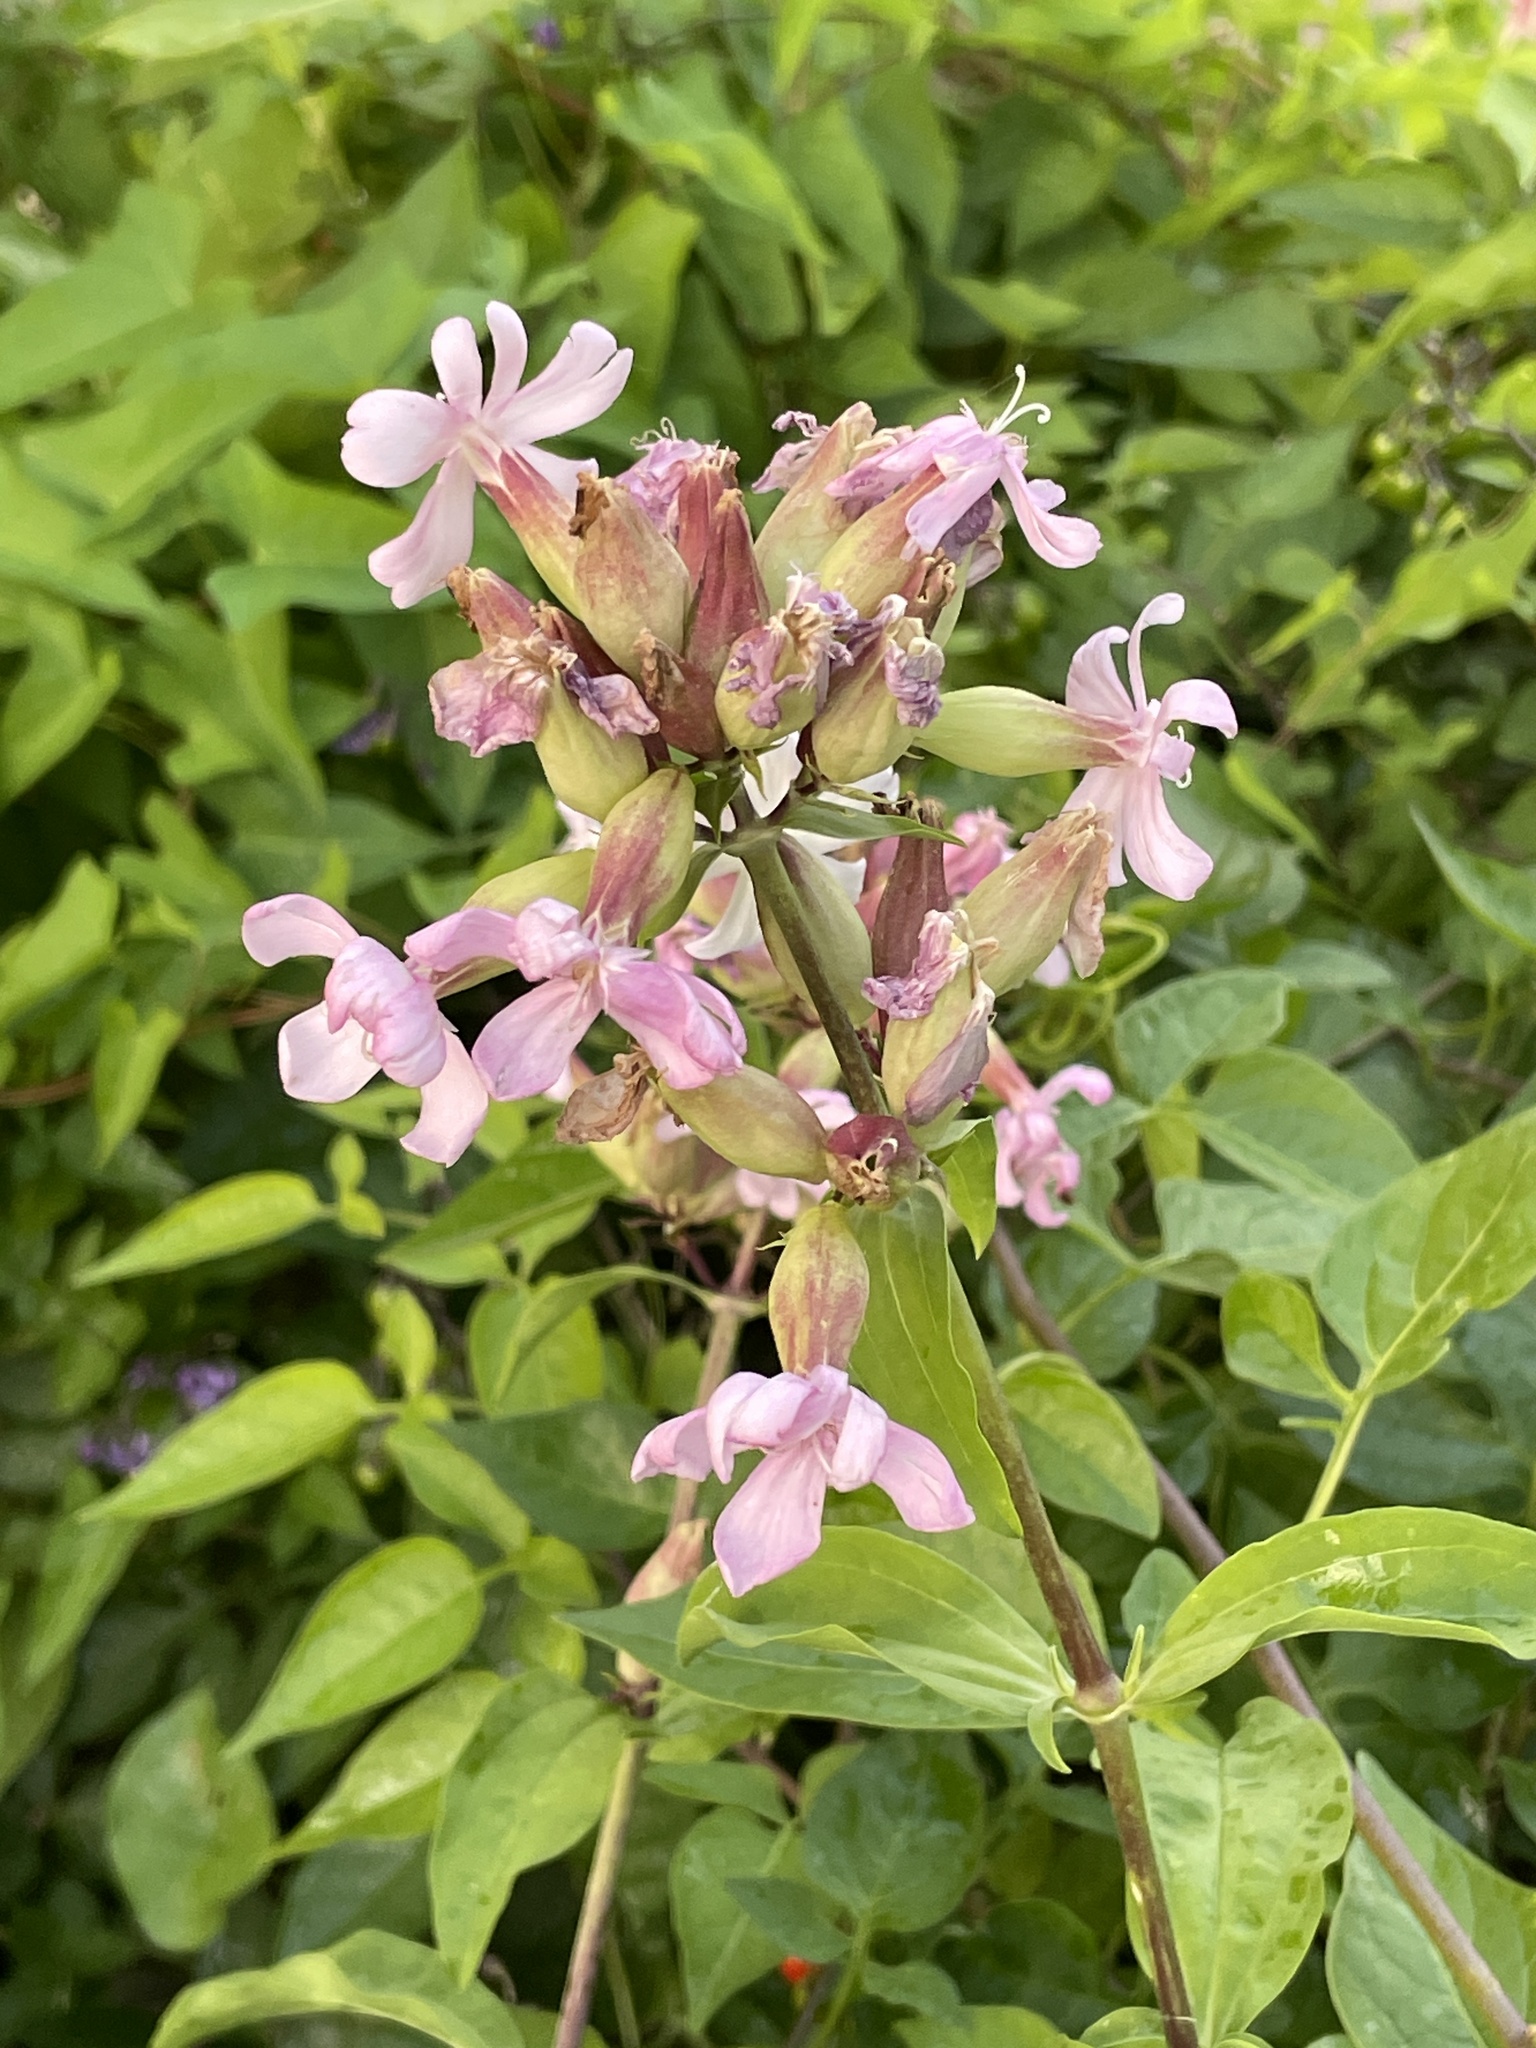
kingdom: Plantae
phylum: Tracheophyta
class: Magnoliopsida
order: Caryophyllales
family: Caryophyllaceae
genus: Saponaria
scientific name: Saponaria officinalis
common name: Soapwort
